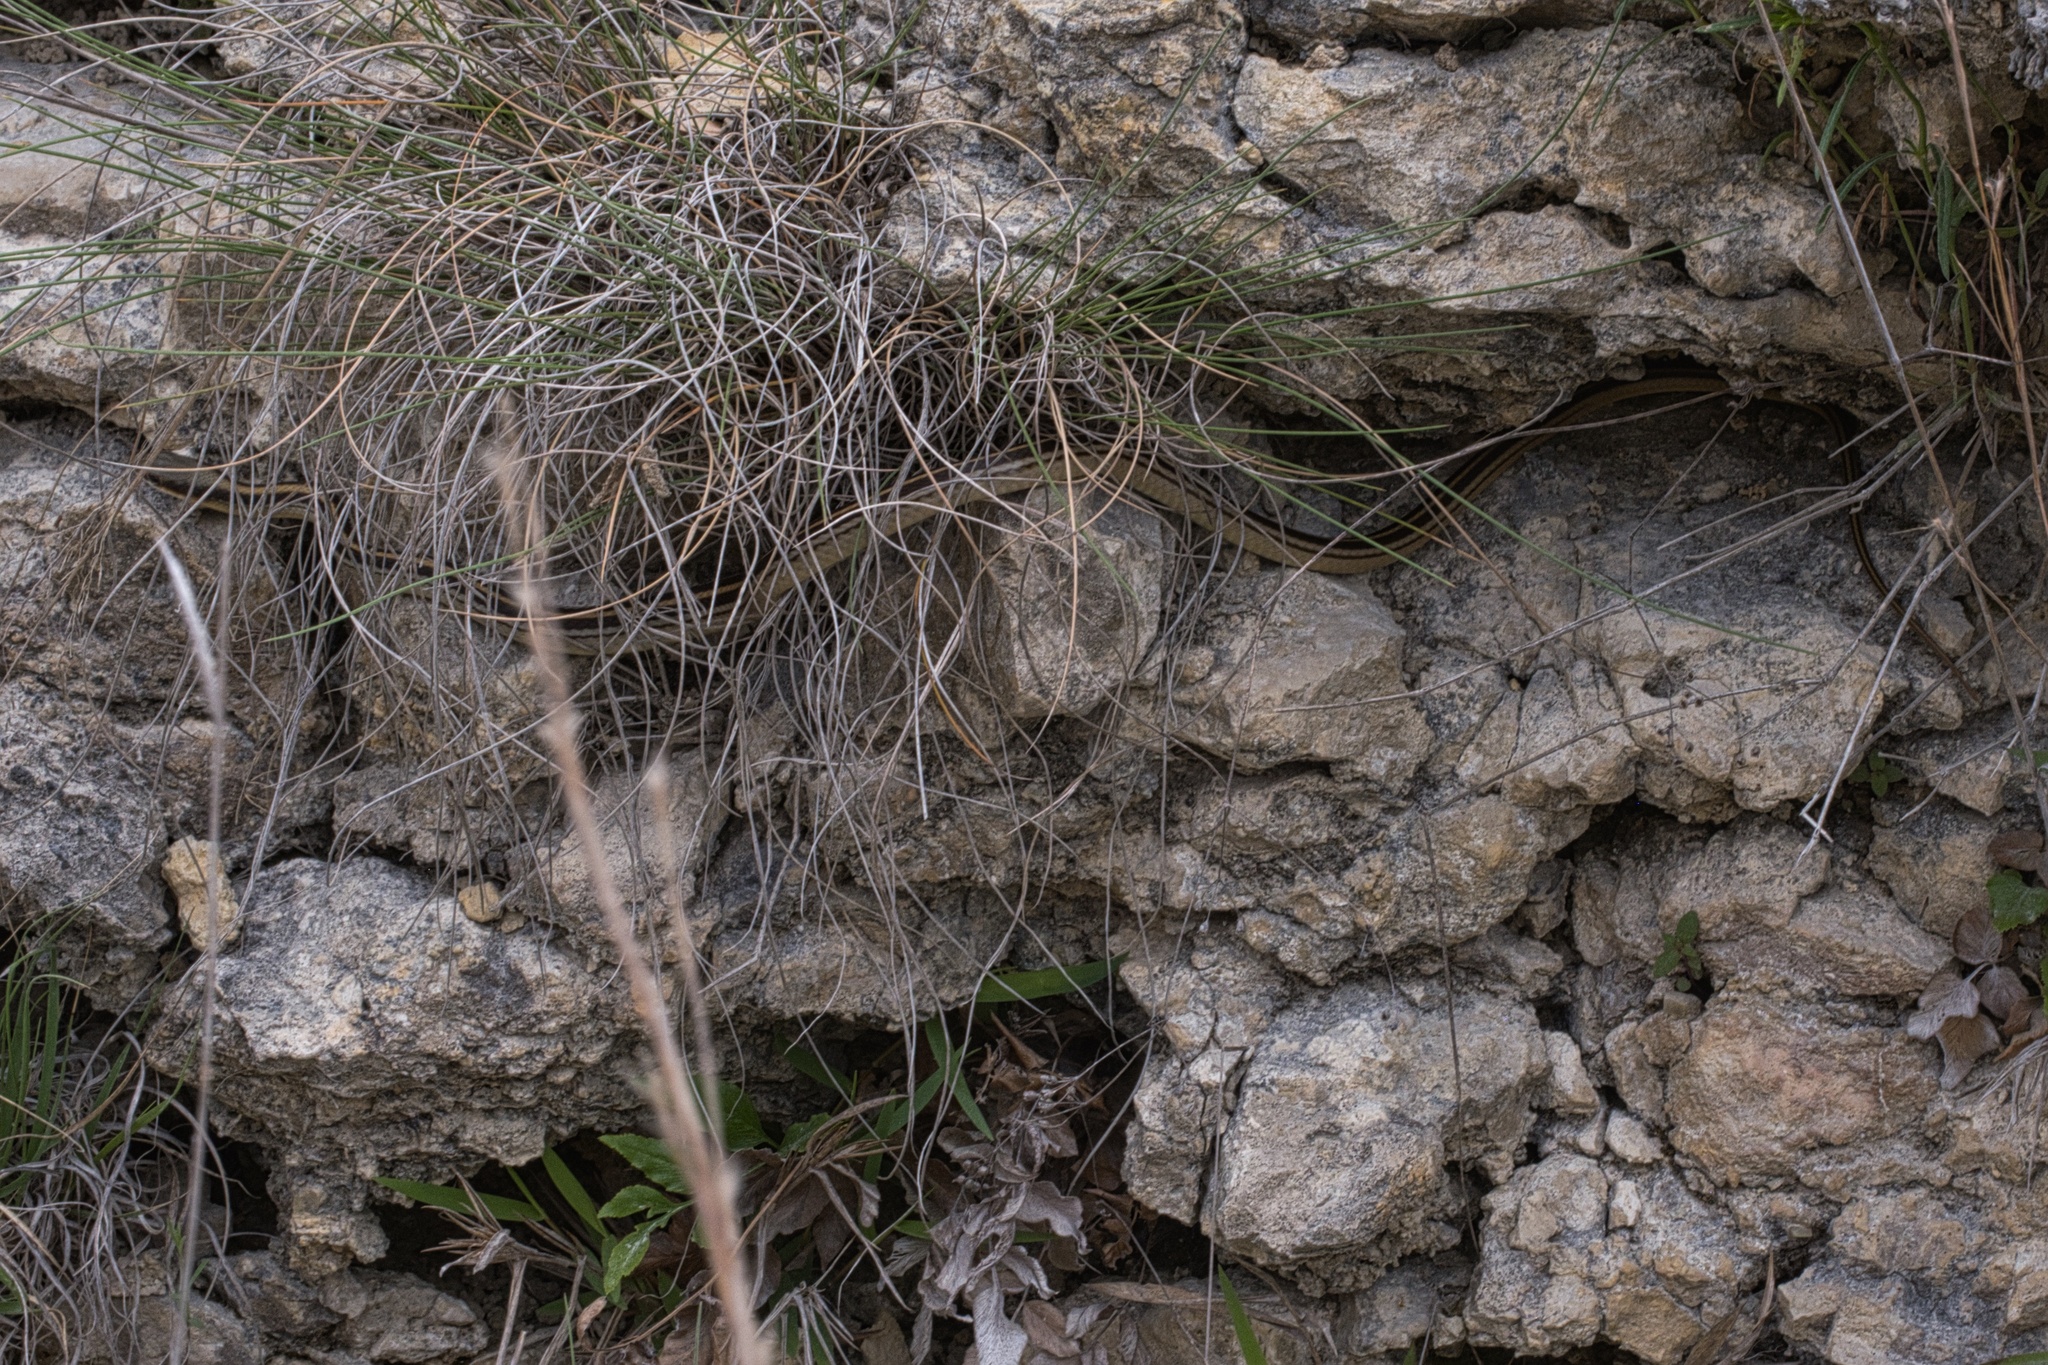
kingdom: Animalia
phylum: Chordata
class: Squamata
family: Colubridae
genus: Salvadora
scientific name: Salvadora lineata
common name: Texas patchnose snake
